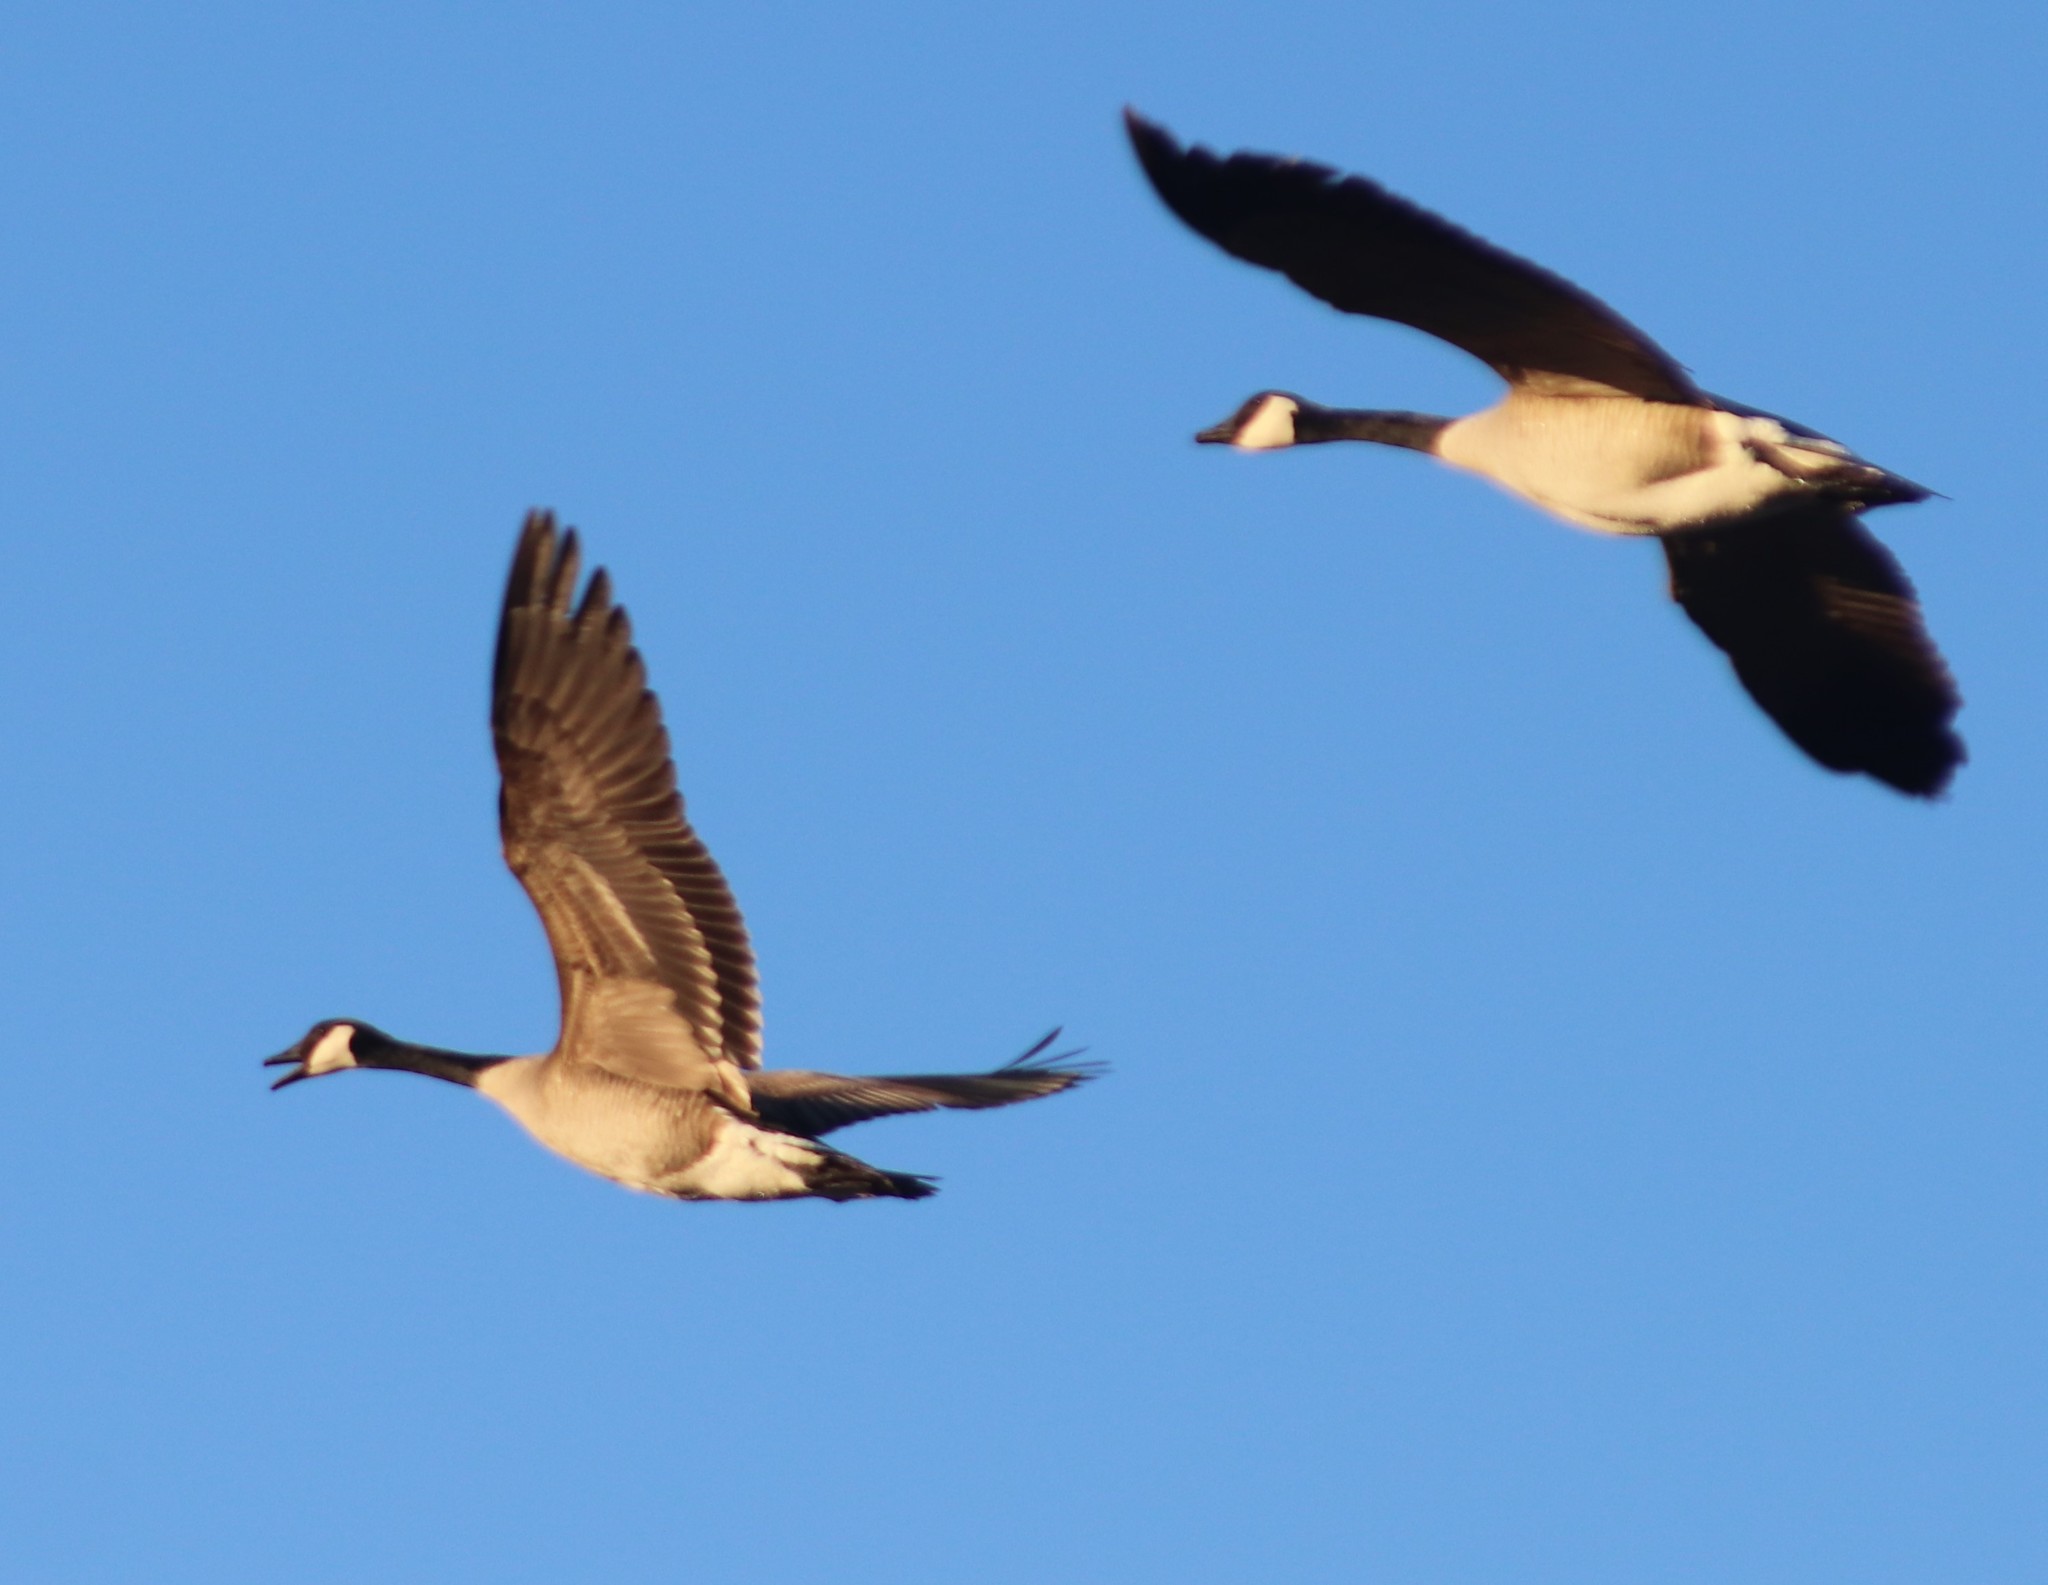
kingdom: Animalia
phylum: Chordata
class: Aves
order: Anseriformes
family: Anatidae
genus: Branta
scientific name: Branta canadensis
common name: Canada goose
